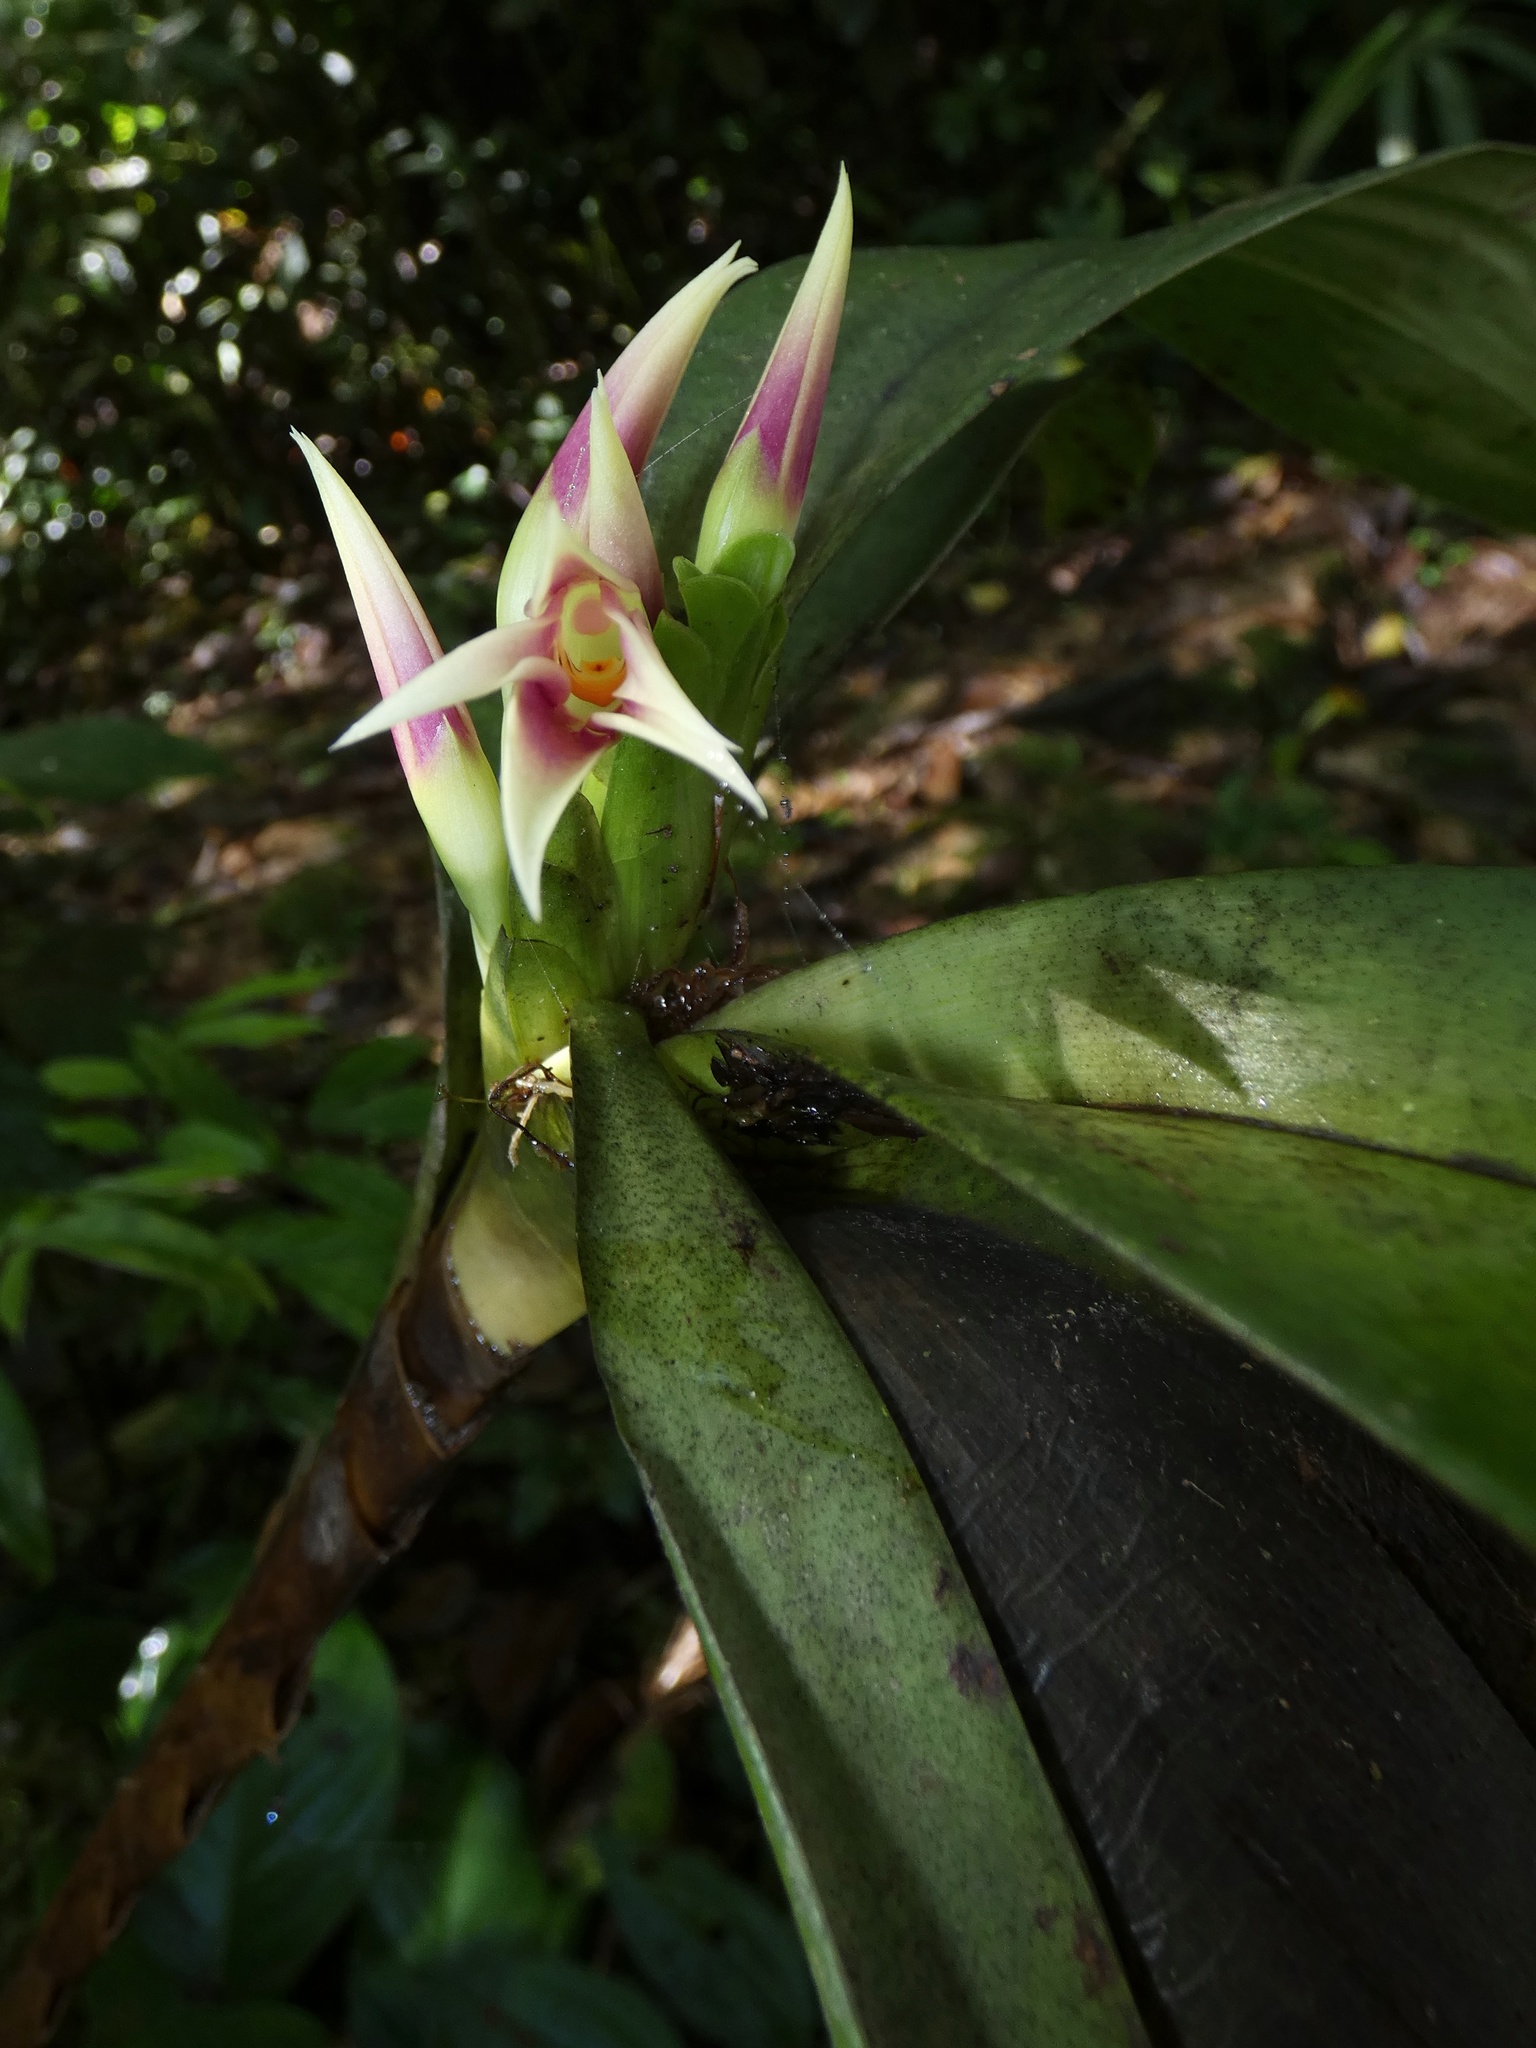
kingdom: Plantae
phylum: Tracheophyta
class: Liliopsida
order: Asparagales
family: Orchidaceae
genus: Maxillaria
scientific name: Maxillaria carinulata
